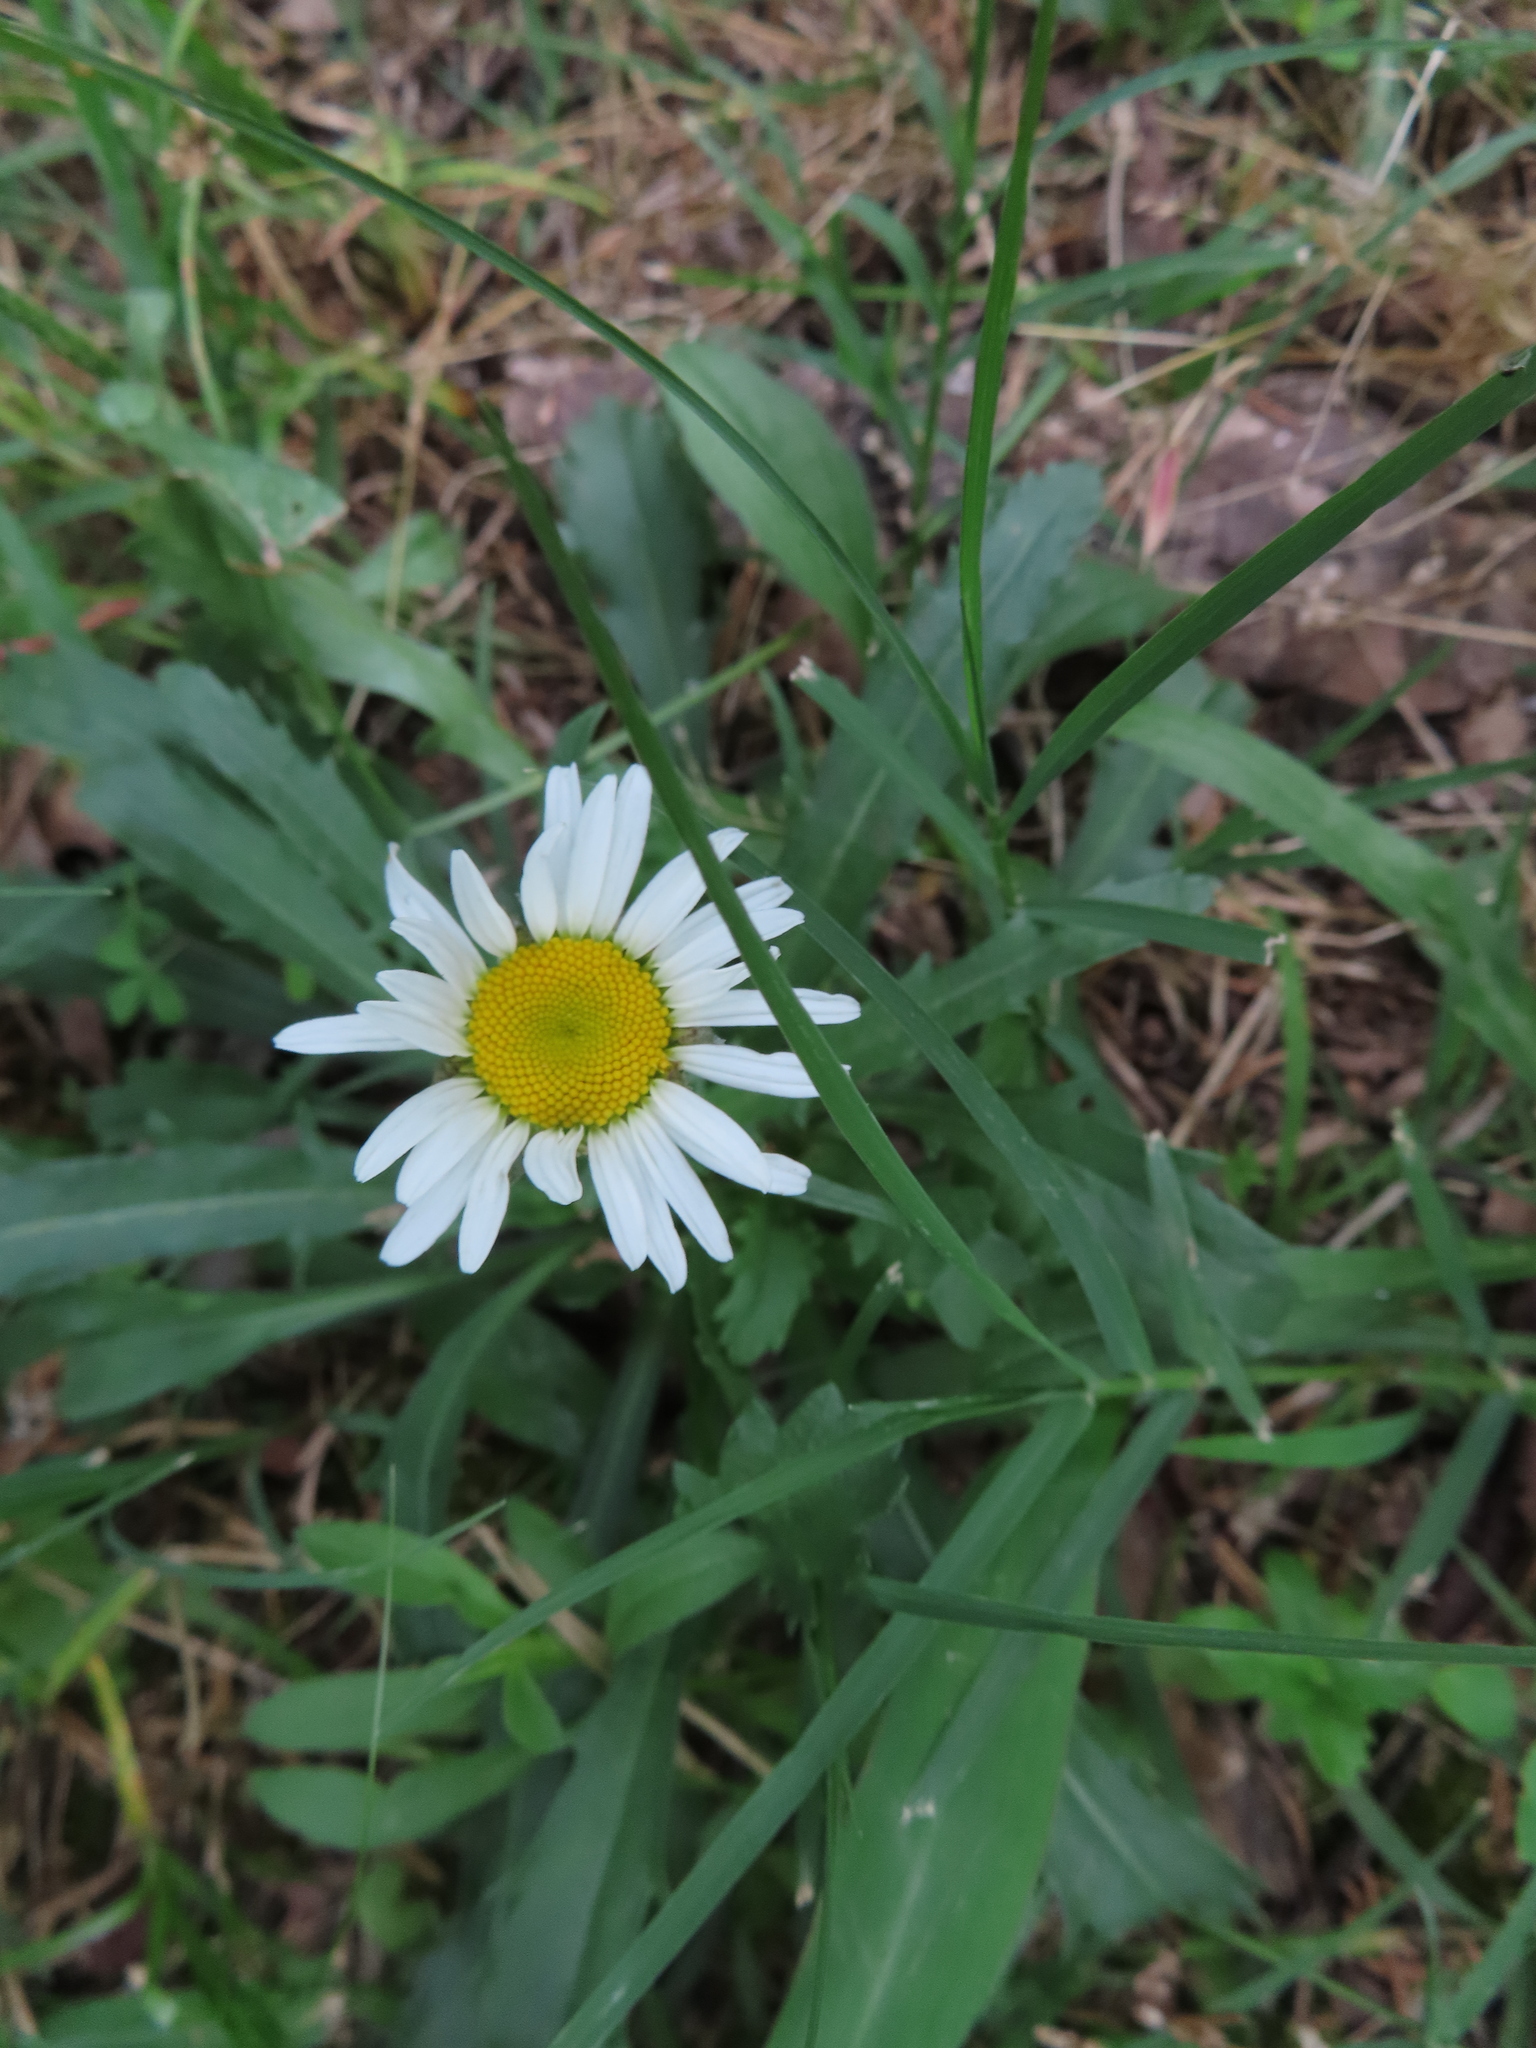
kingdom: Plantae
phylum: Tracheophyta
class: Magnoliopsida
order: Asterales
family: Asteraceae
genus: Leucanthemum
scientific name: Leucanthemum vulgare
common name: Oxeye daisy
